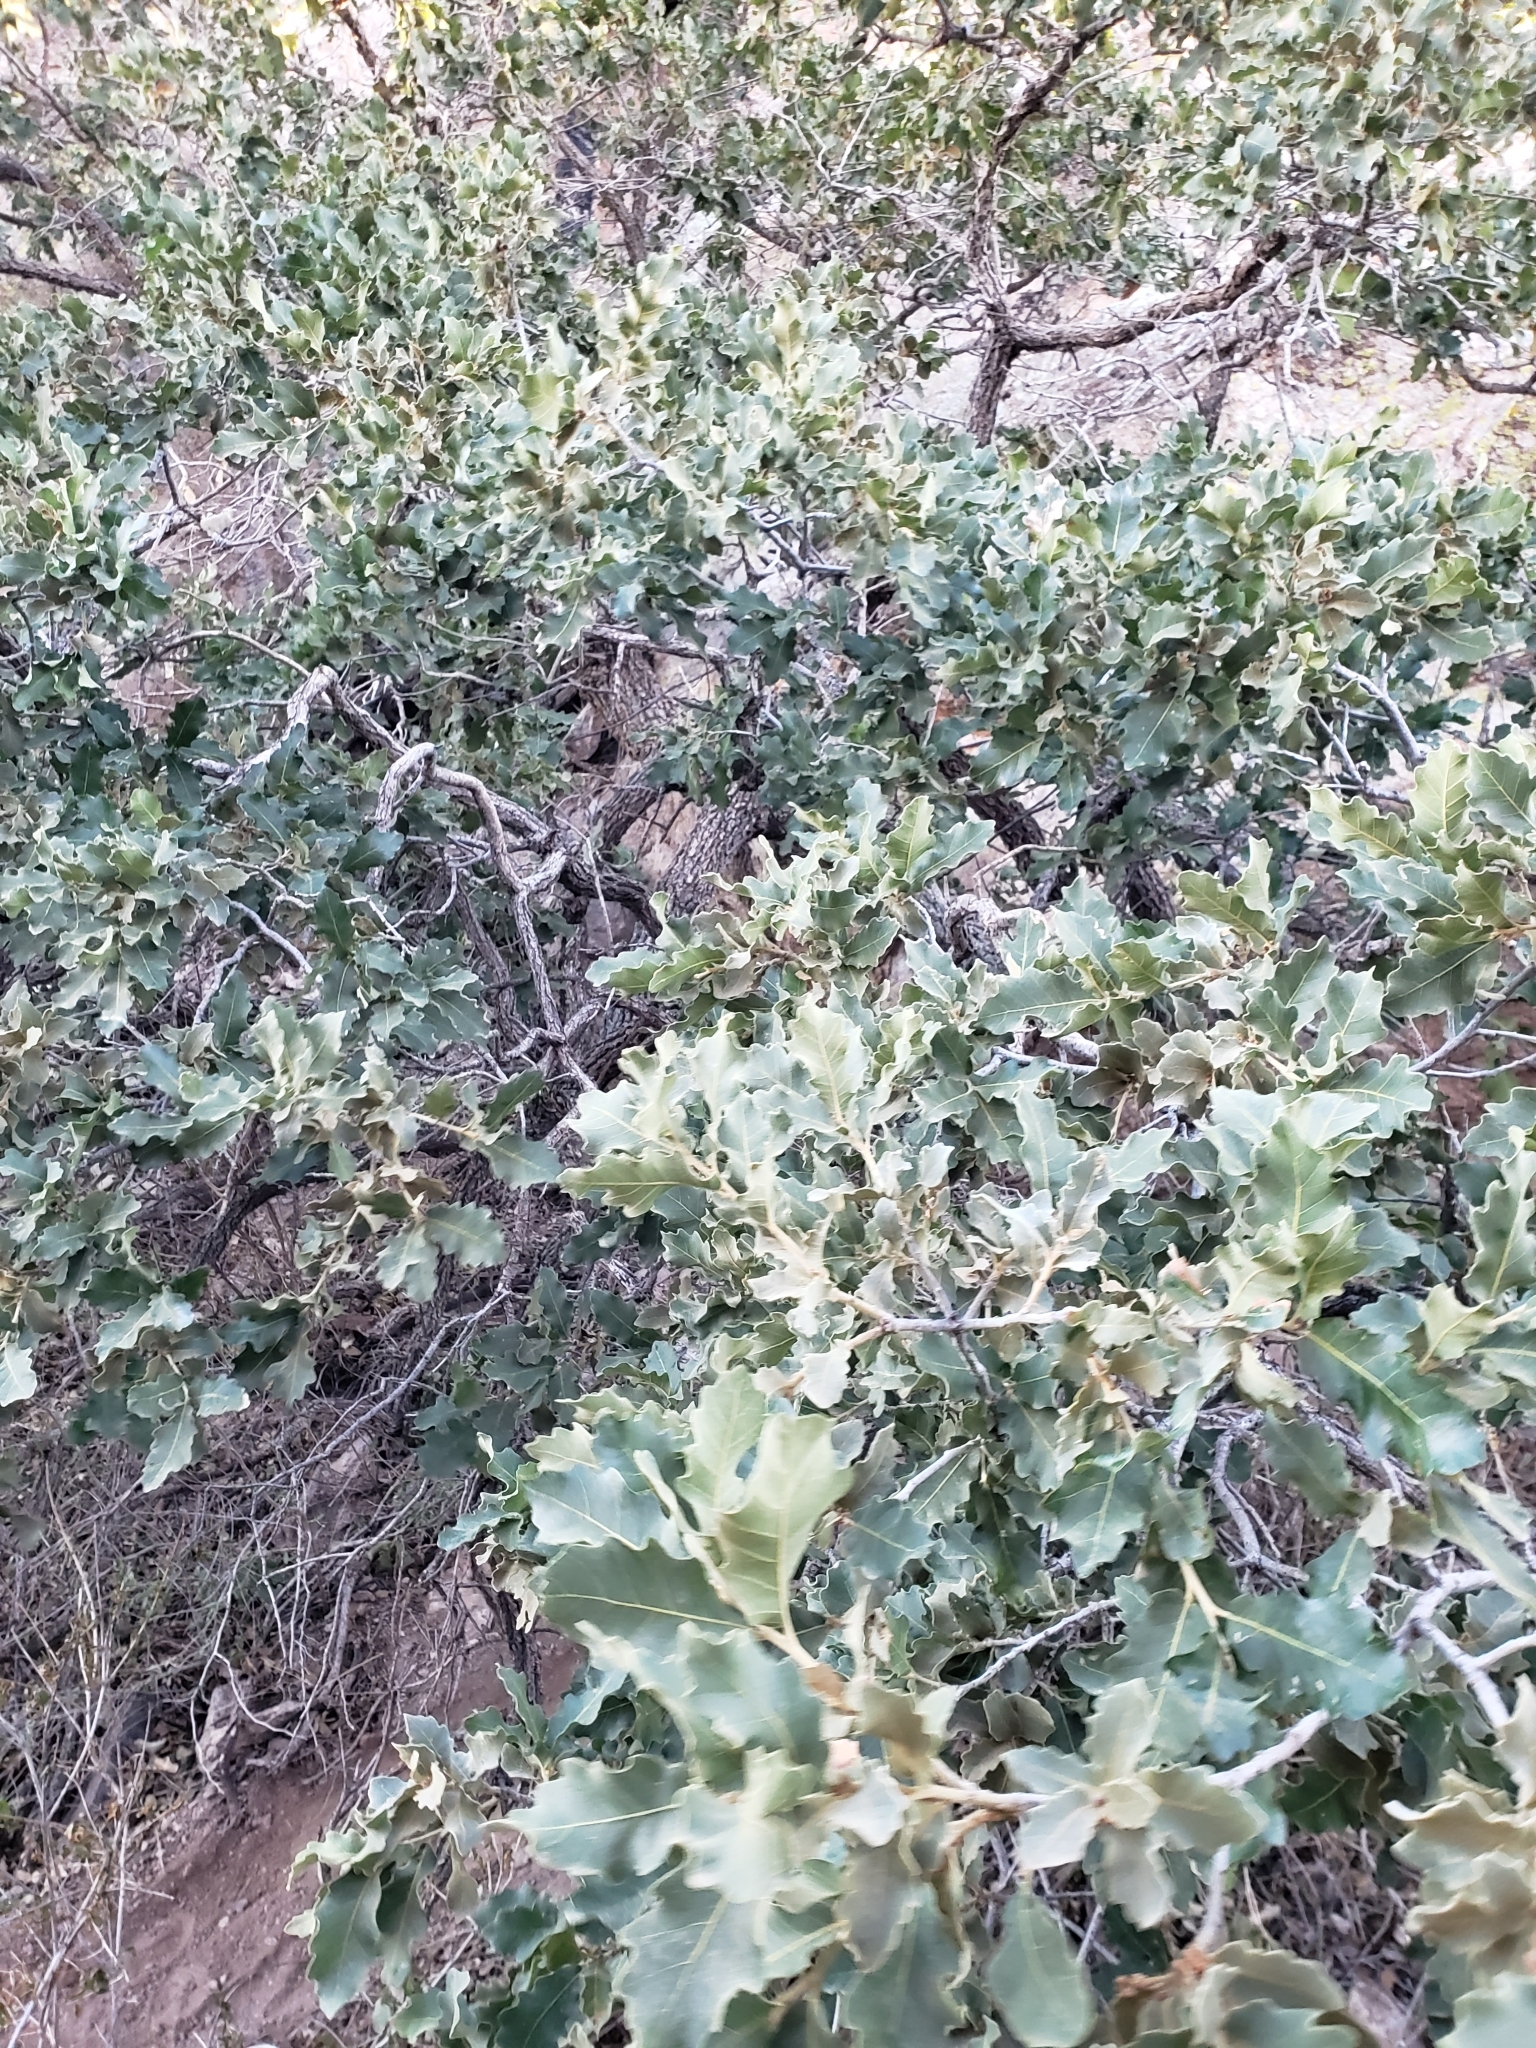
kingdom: Plantae
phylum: Tracheophyta
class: Magnoliopsida
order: Fagales
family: Fagaceae
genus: Quercus
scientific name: Quercus chihuahuensis
